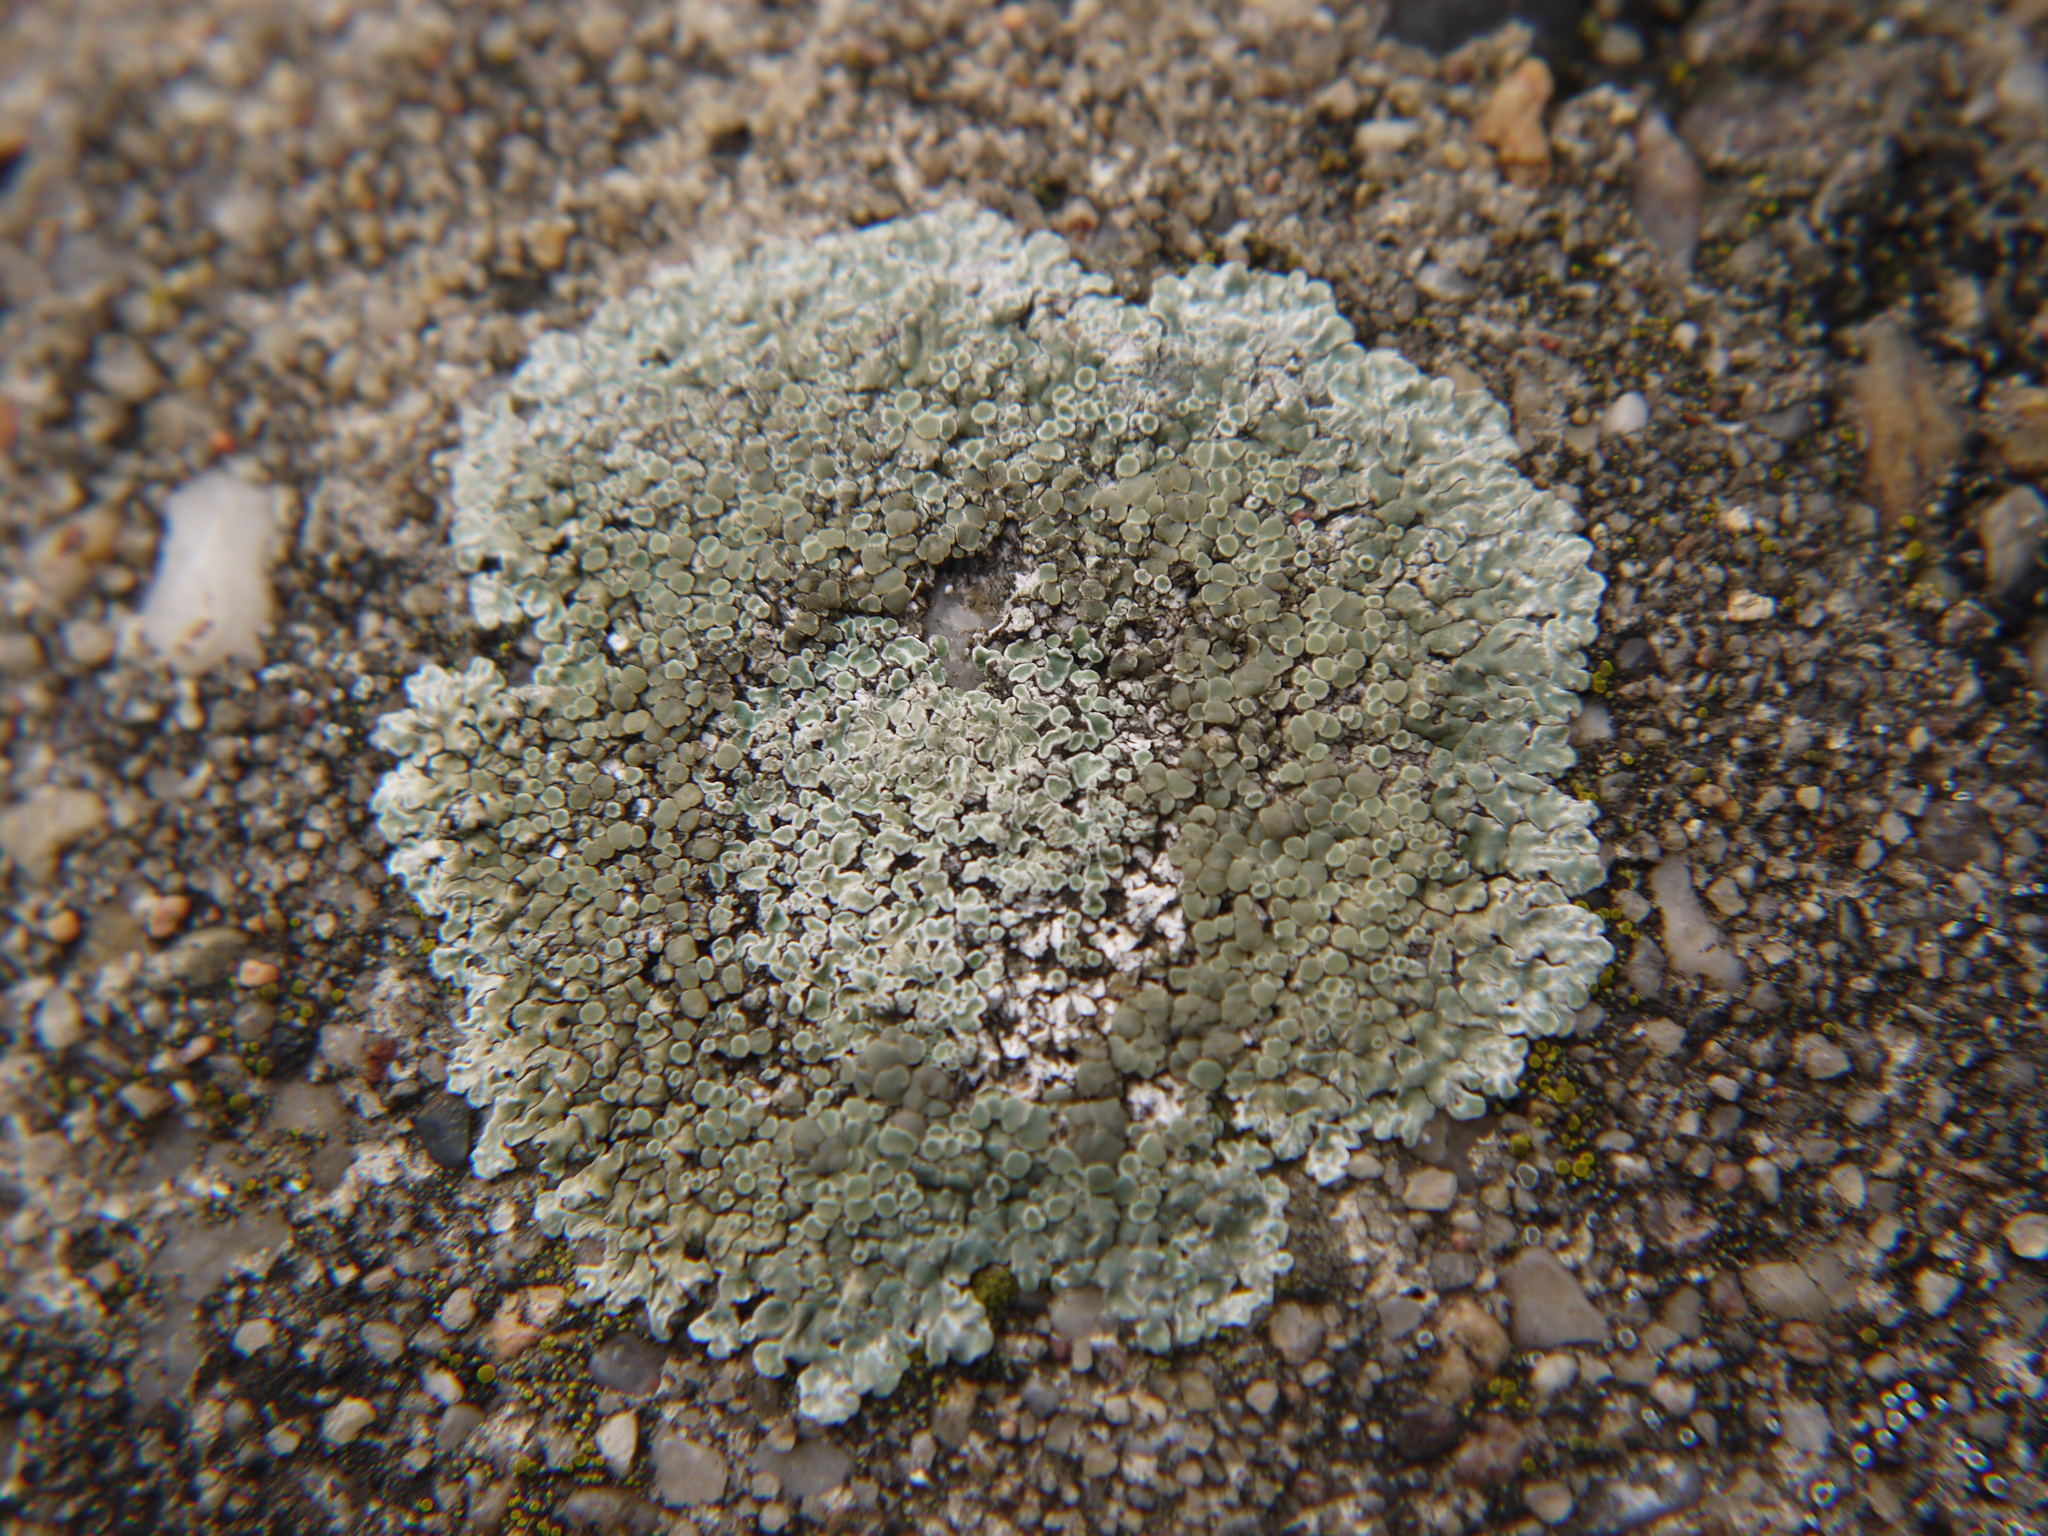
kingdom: Fungi
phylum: Ascomycota
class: Lecanoromycetes
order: Lecanorales
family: Lecanoraceae
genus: Protoparmeliopsis
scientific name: Protoparmeliopsis muralis
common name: Stonewall rim lichen
